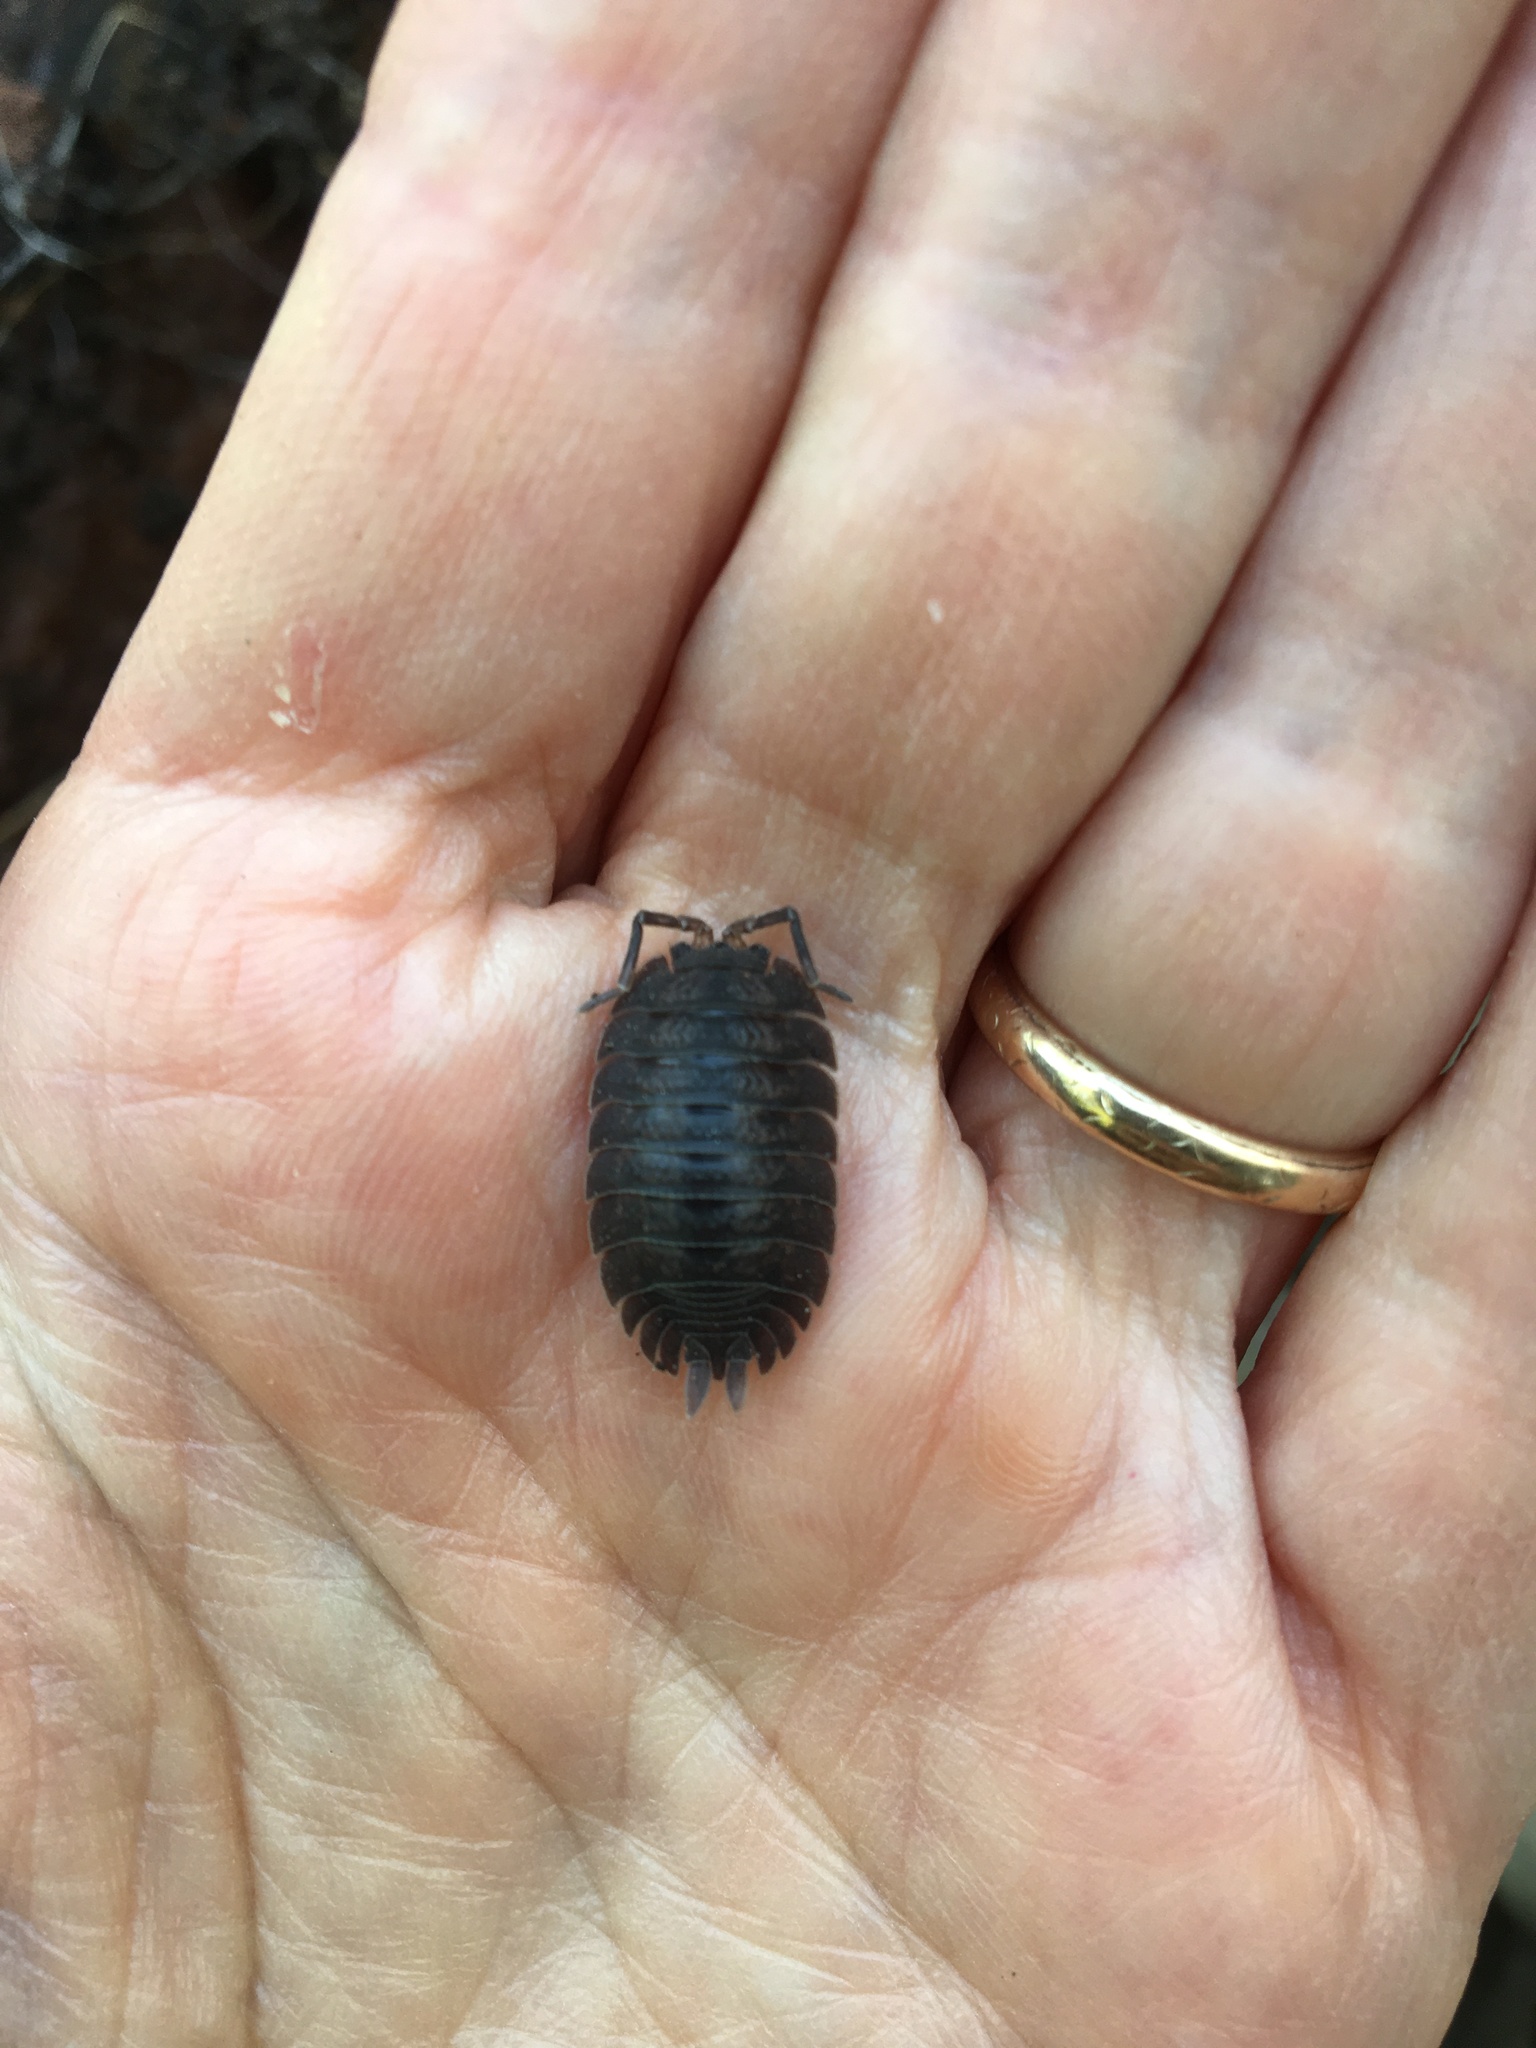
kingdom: Animalia
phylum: Arthropoda
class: Malacostraca
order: Isopoda
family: Porcellionidae
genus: Porcellio
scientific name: Porcellio dilatatus
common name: Isopod
